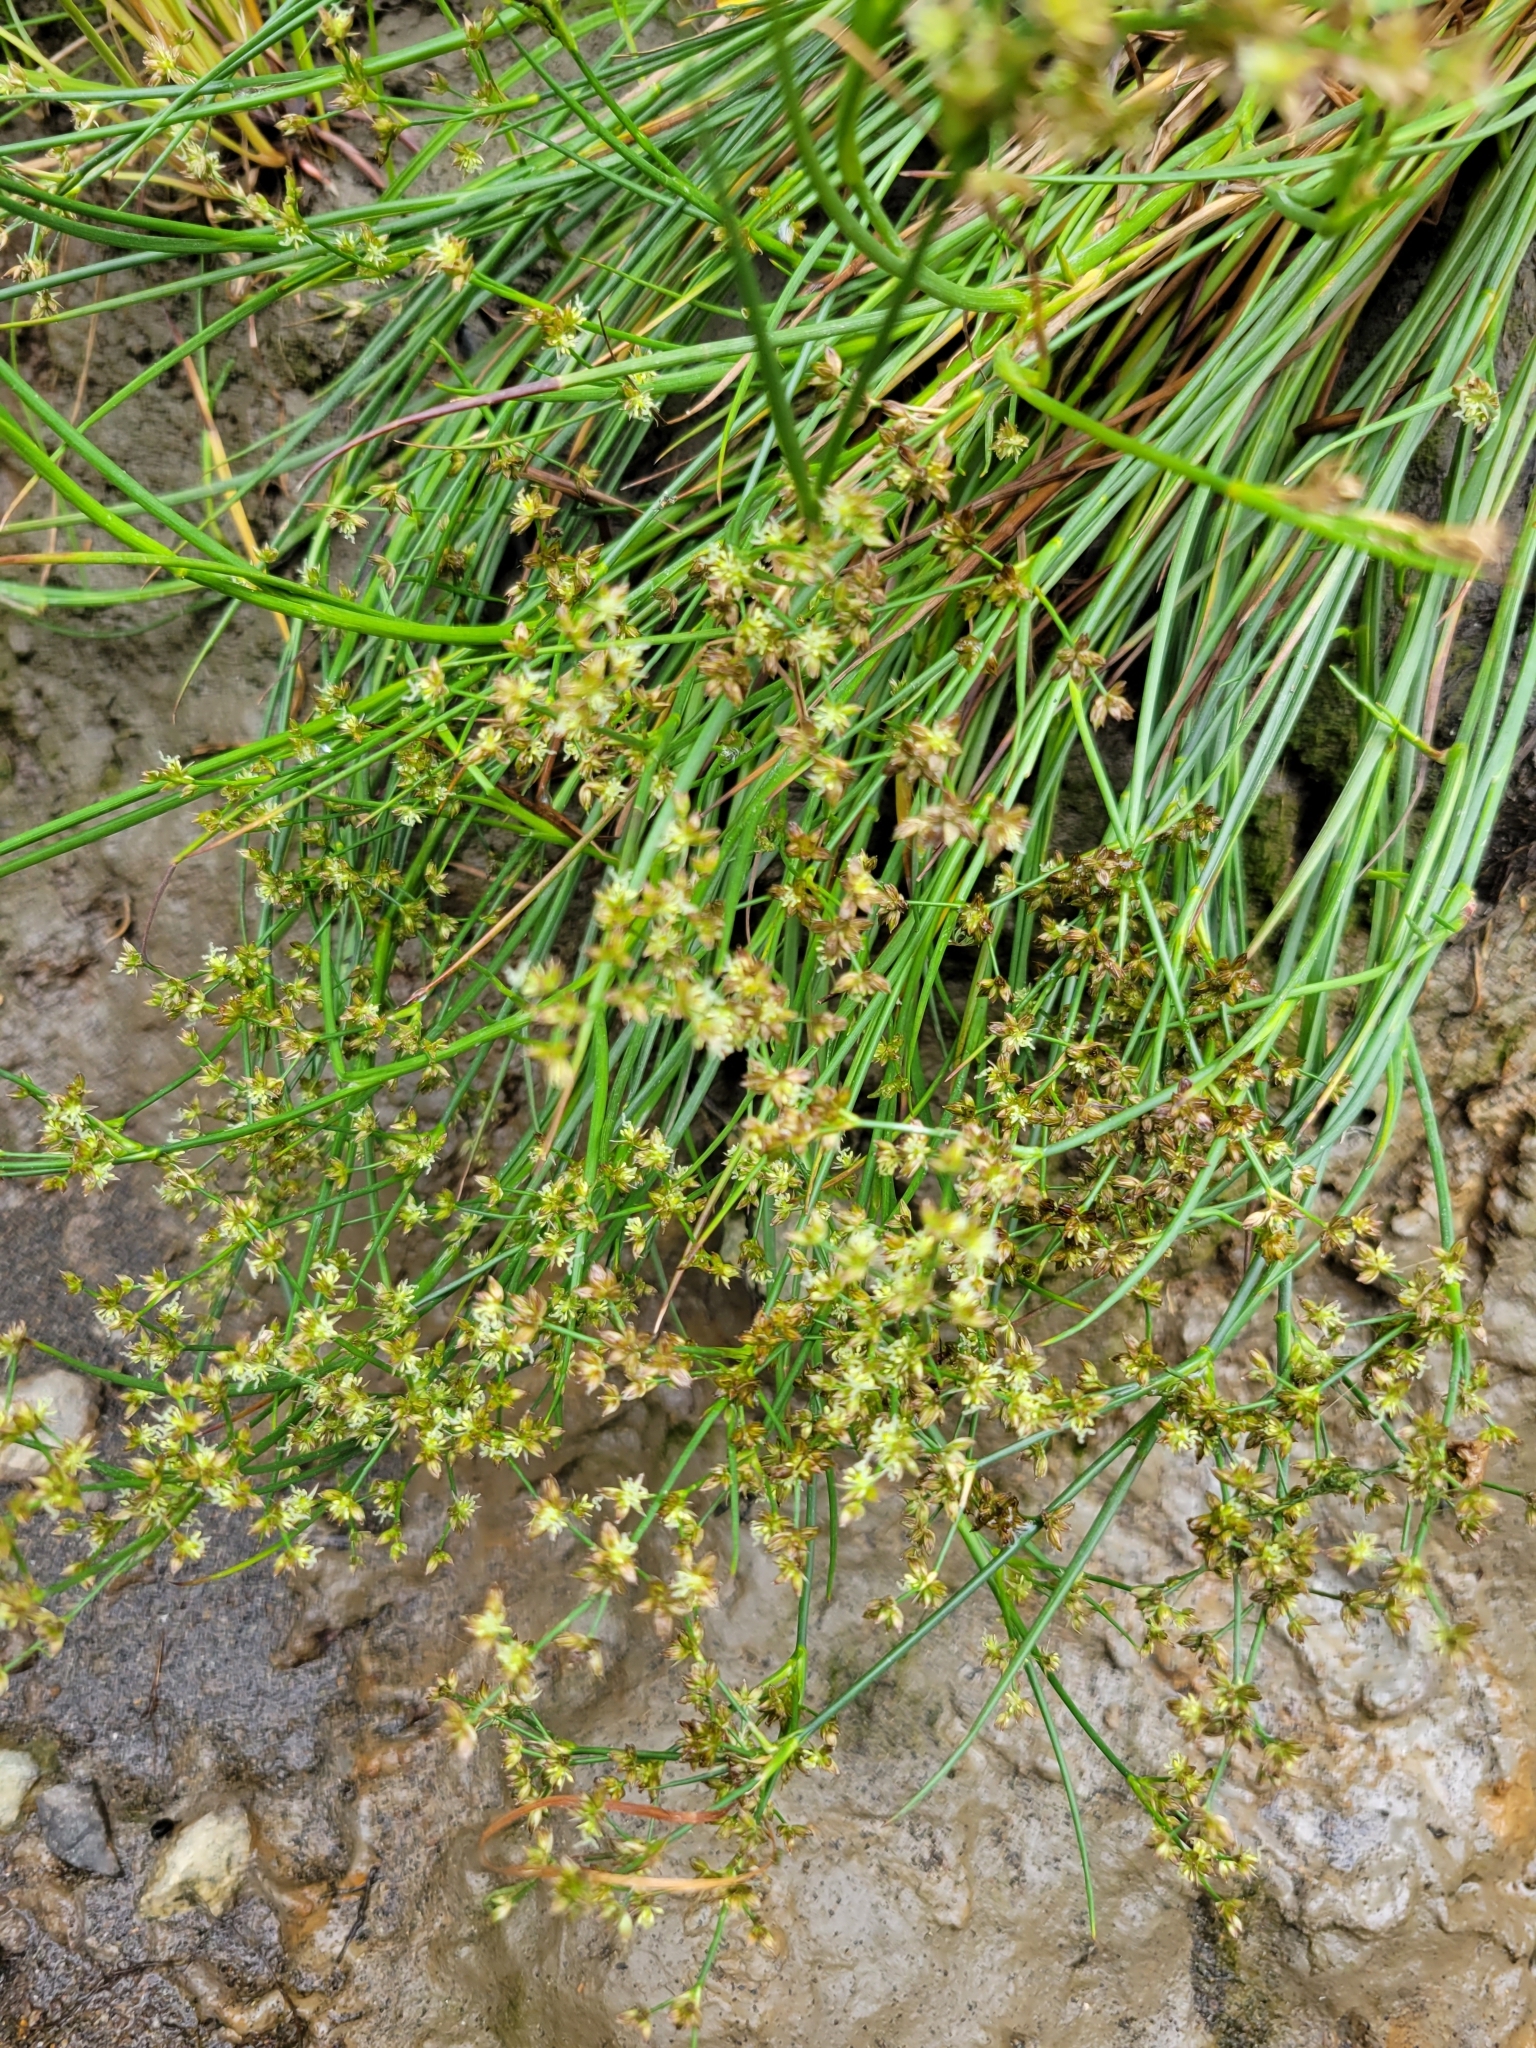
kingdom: Plantae
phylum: Tracheophyta
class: Liliopsida
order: Poales
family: Juncaceae
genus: Juncus
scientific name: Juncus articulatus
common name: Jointed rush
